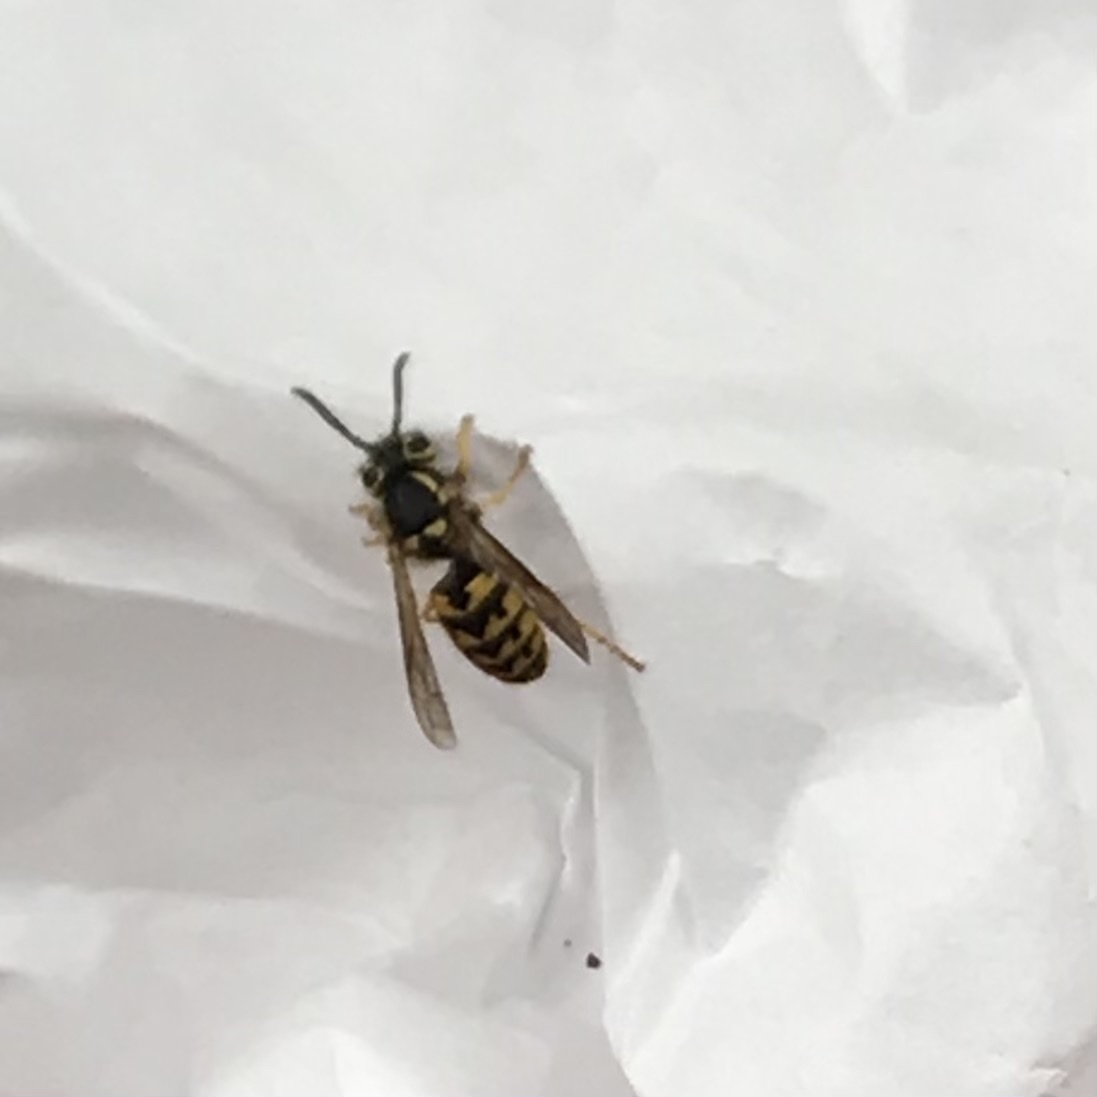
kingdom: Animalia
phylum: Arthropoda
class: Insecta
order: Hymenoptera
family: Vespidae
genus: Vespula
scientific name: Vespula pensylvanica
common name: Western yellowjacket
